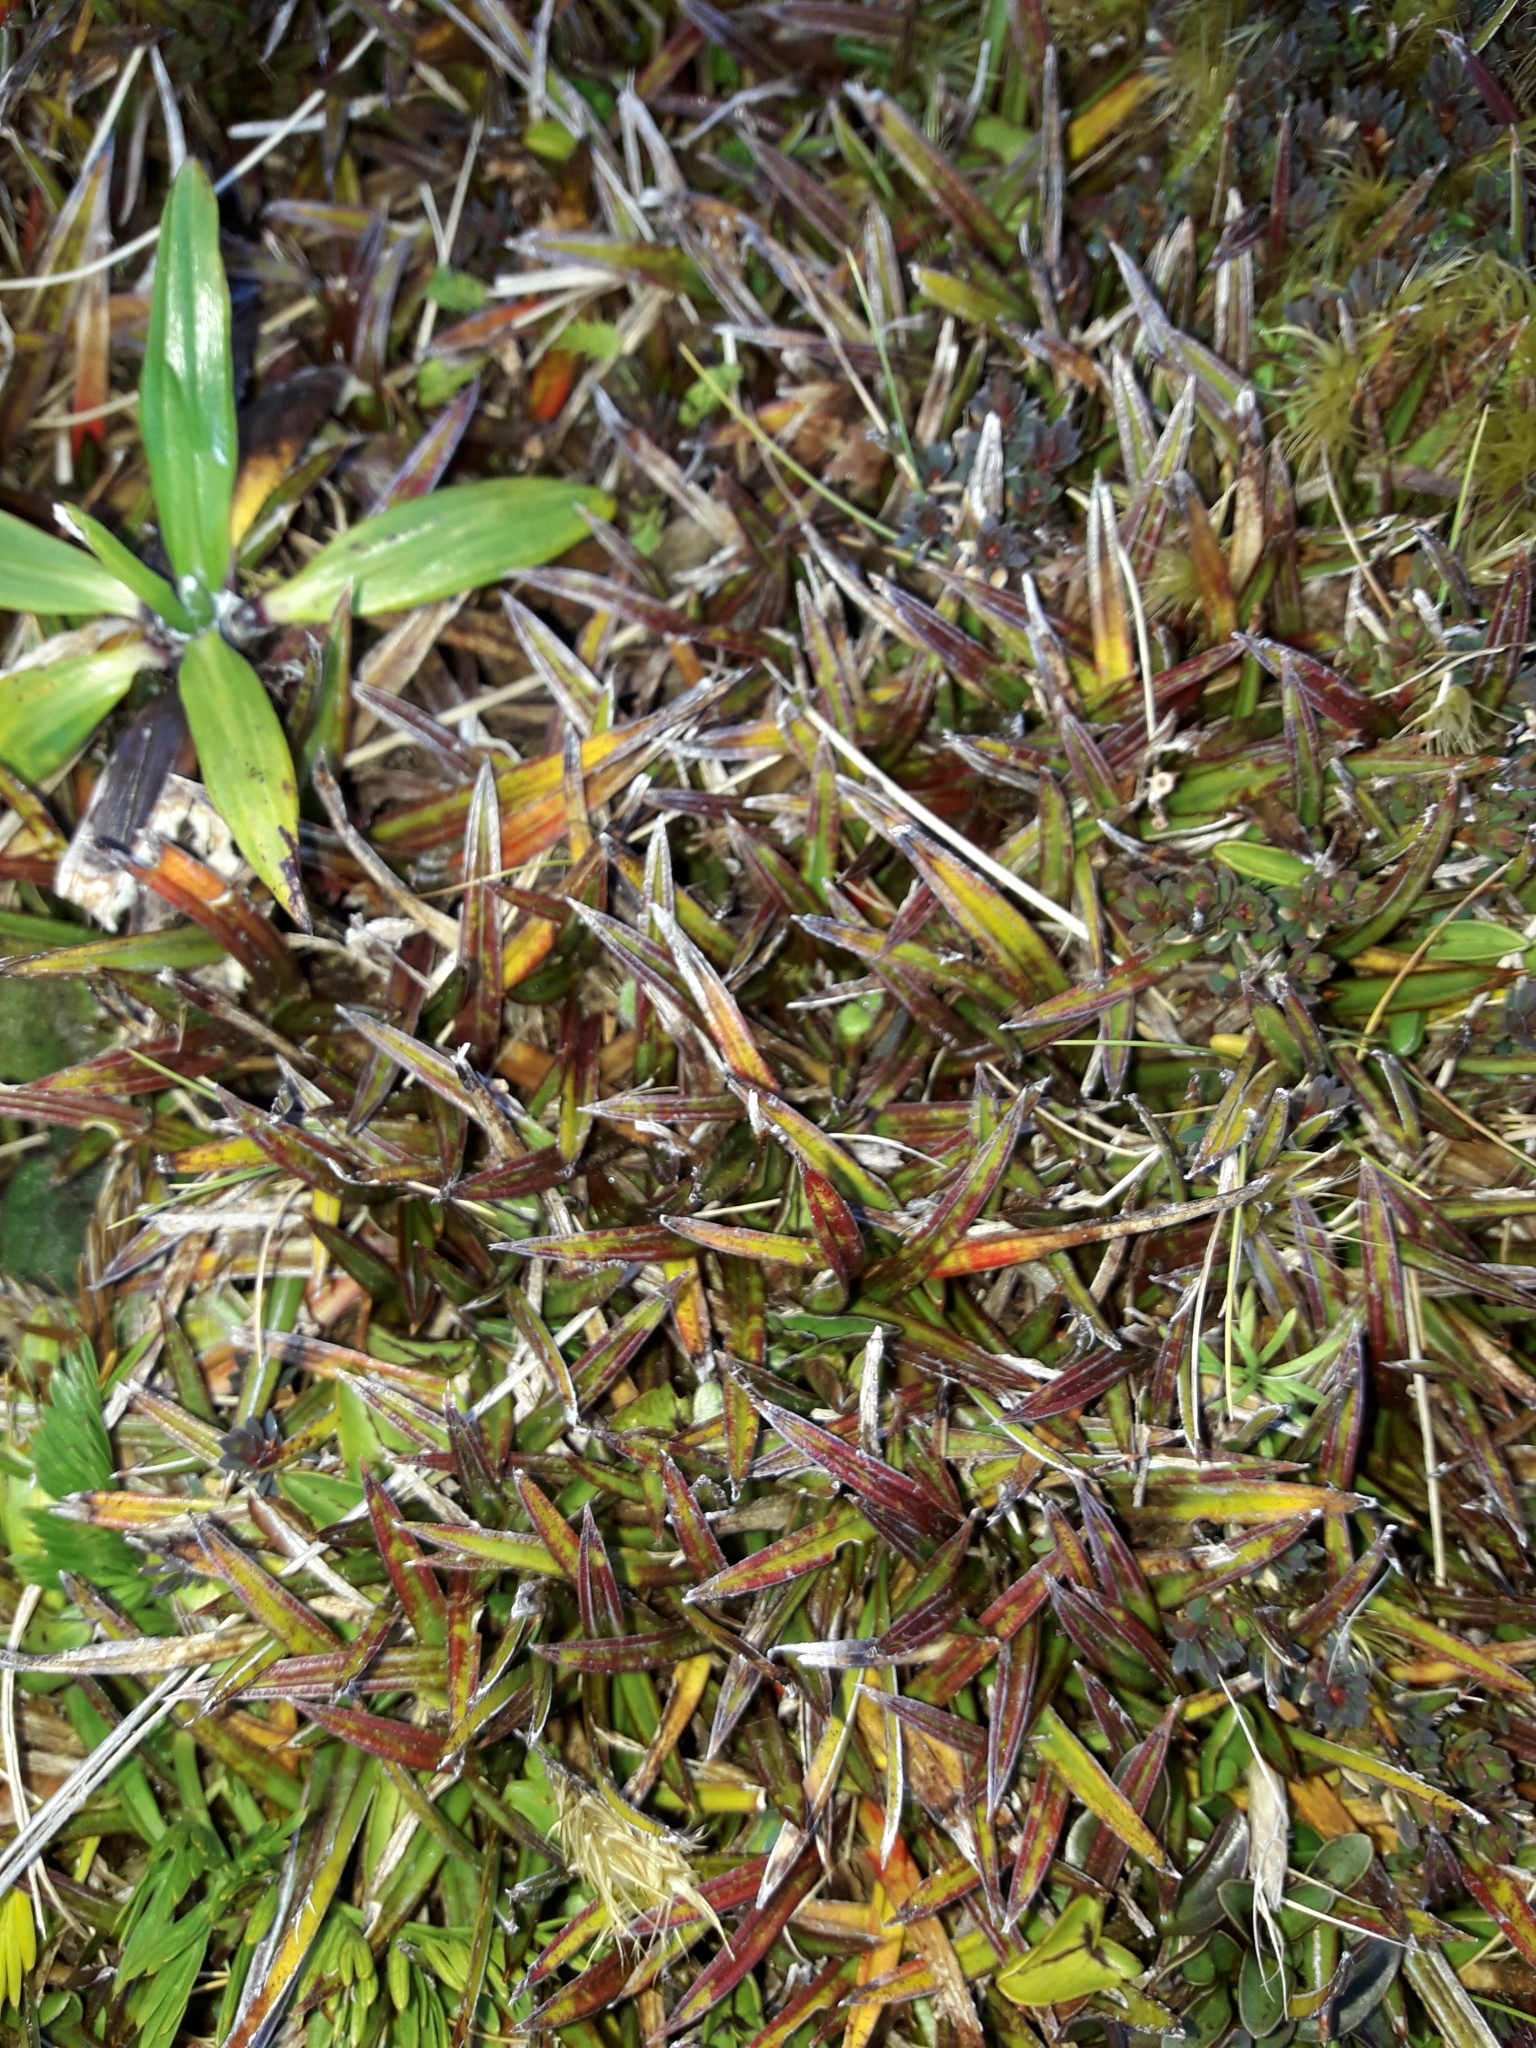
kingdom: Plantae
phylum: Tracheophyta
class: Liliopsida
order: Asparagales
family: Asteliaceae
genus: Astelia
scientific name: Astelia linearis
